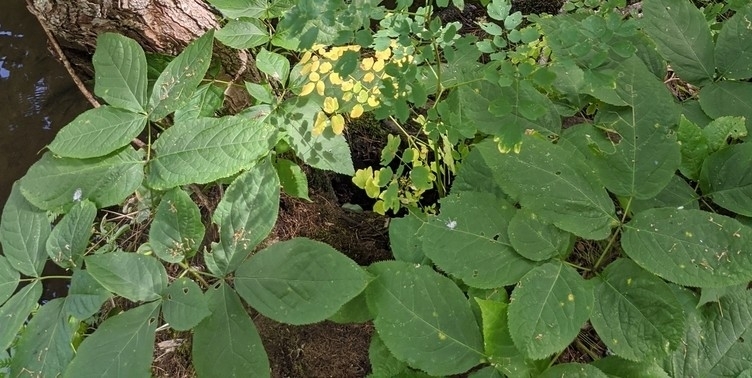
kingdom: Plantae
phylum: Tracheophyta
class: Magnoliopsida
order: Apiales
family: Araliaceae
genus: Aralia
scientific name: Aralia nudicaulis
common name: Wild sarsaparilla
